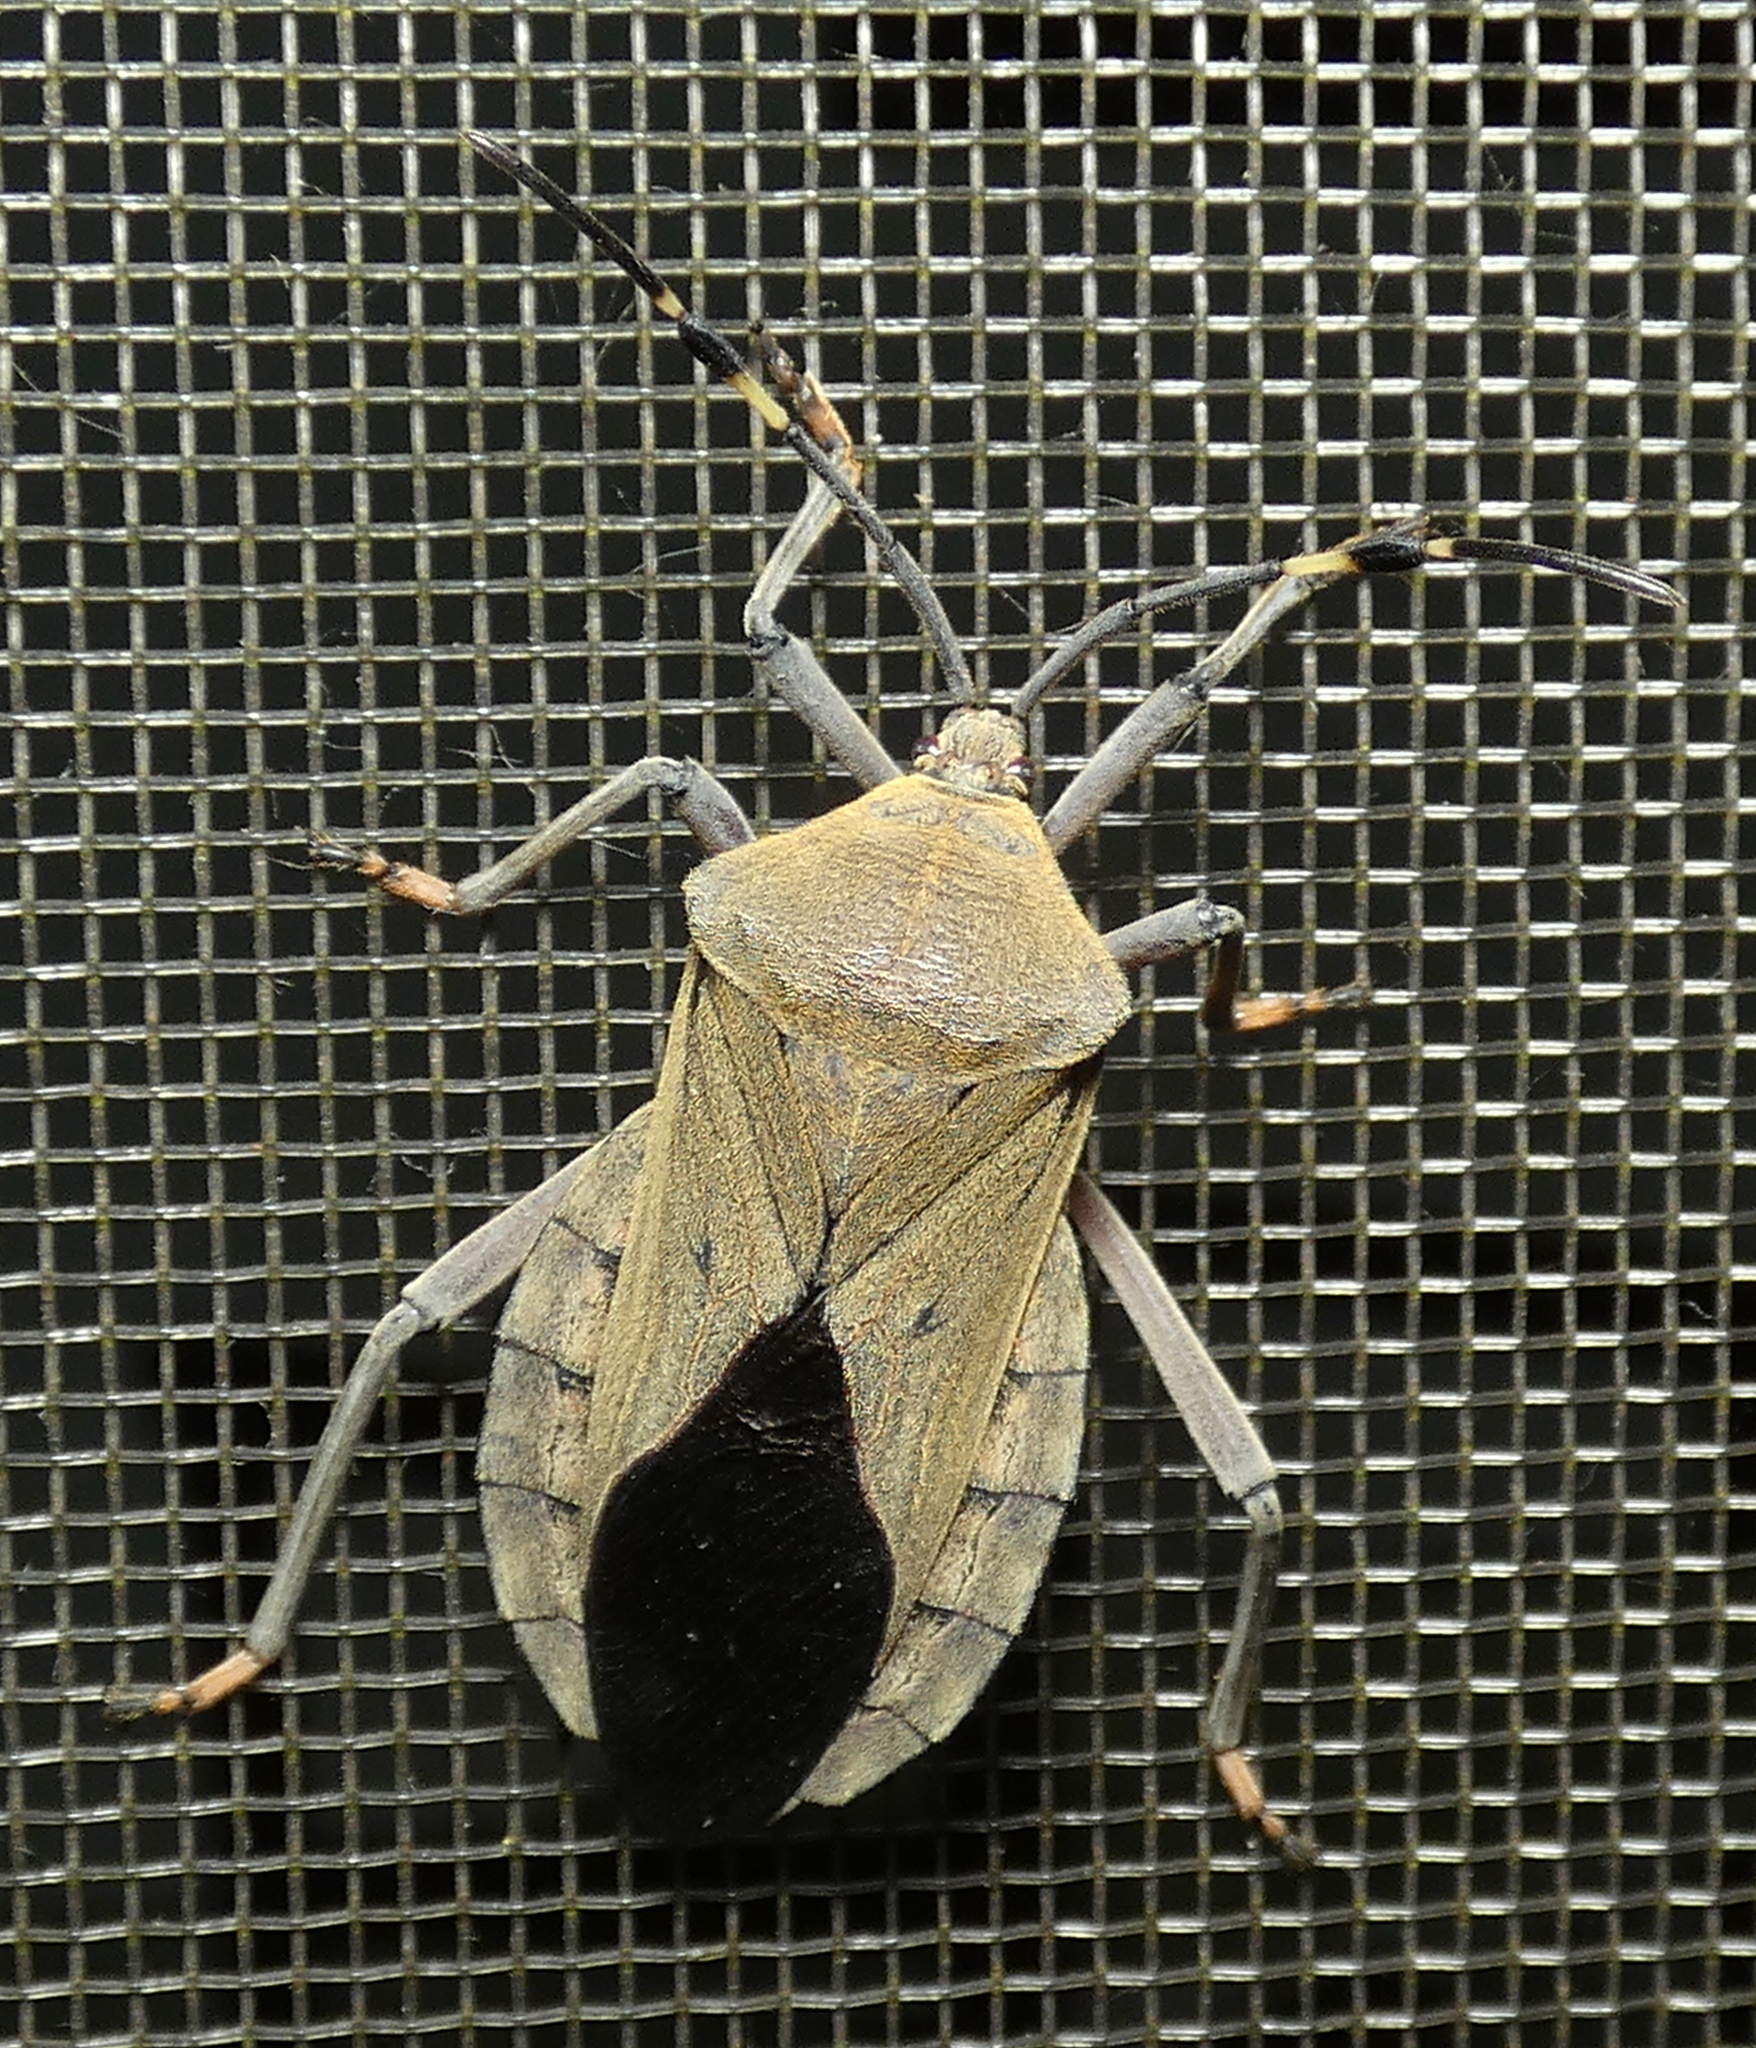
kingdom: Animalia
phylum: Arthropoda
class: Insecta
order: Hemiptera
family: Coreidae
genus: Pachylis
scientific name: Pachylis laticornis
